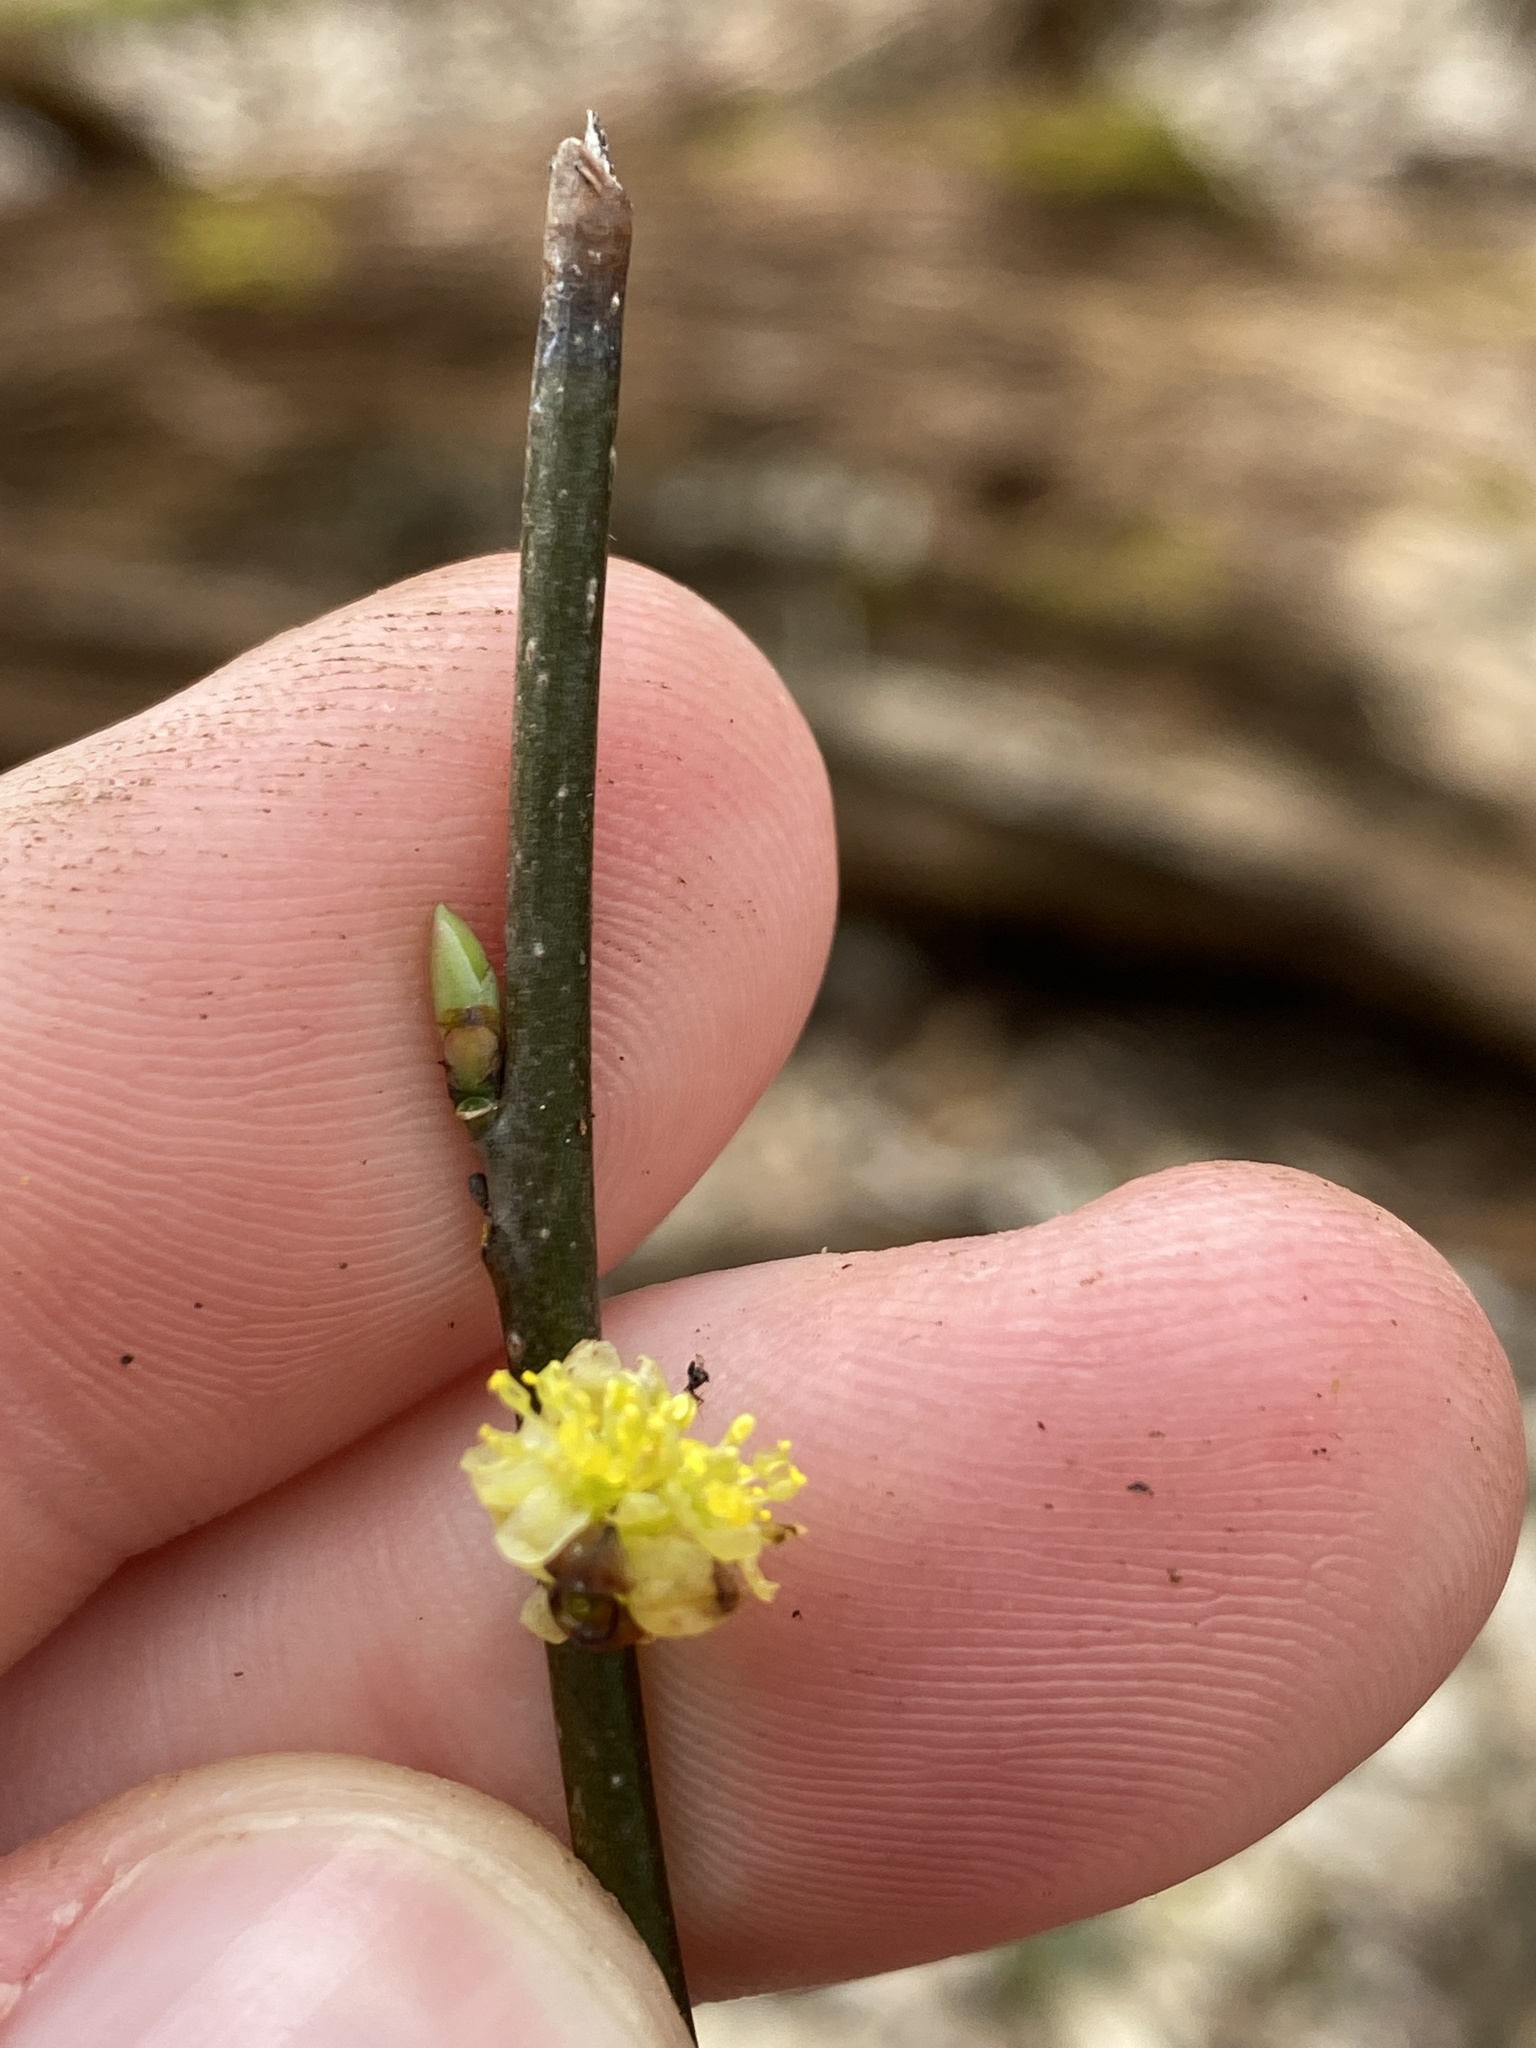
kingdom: Plantae
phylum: Tracheophyta
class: Magnoliopsida
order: Laurales
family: Lauraceae
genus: Lindera
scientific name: Lindera benzoin
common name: Spicebush
